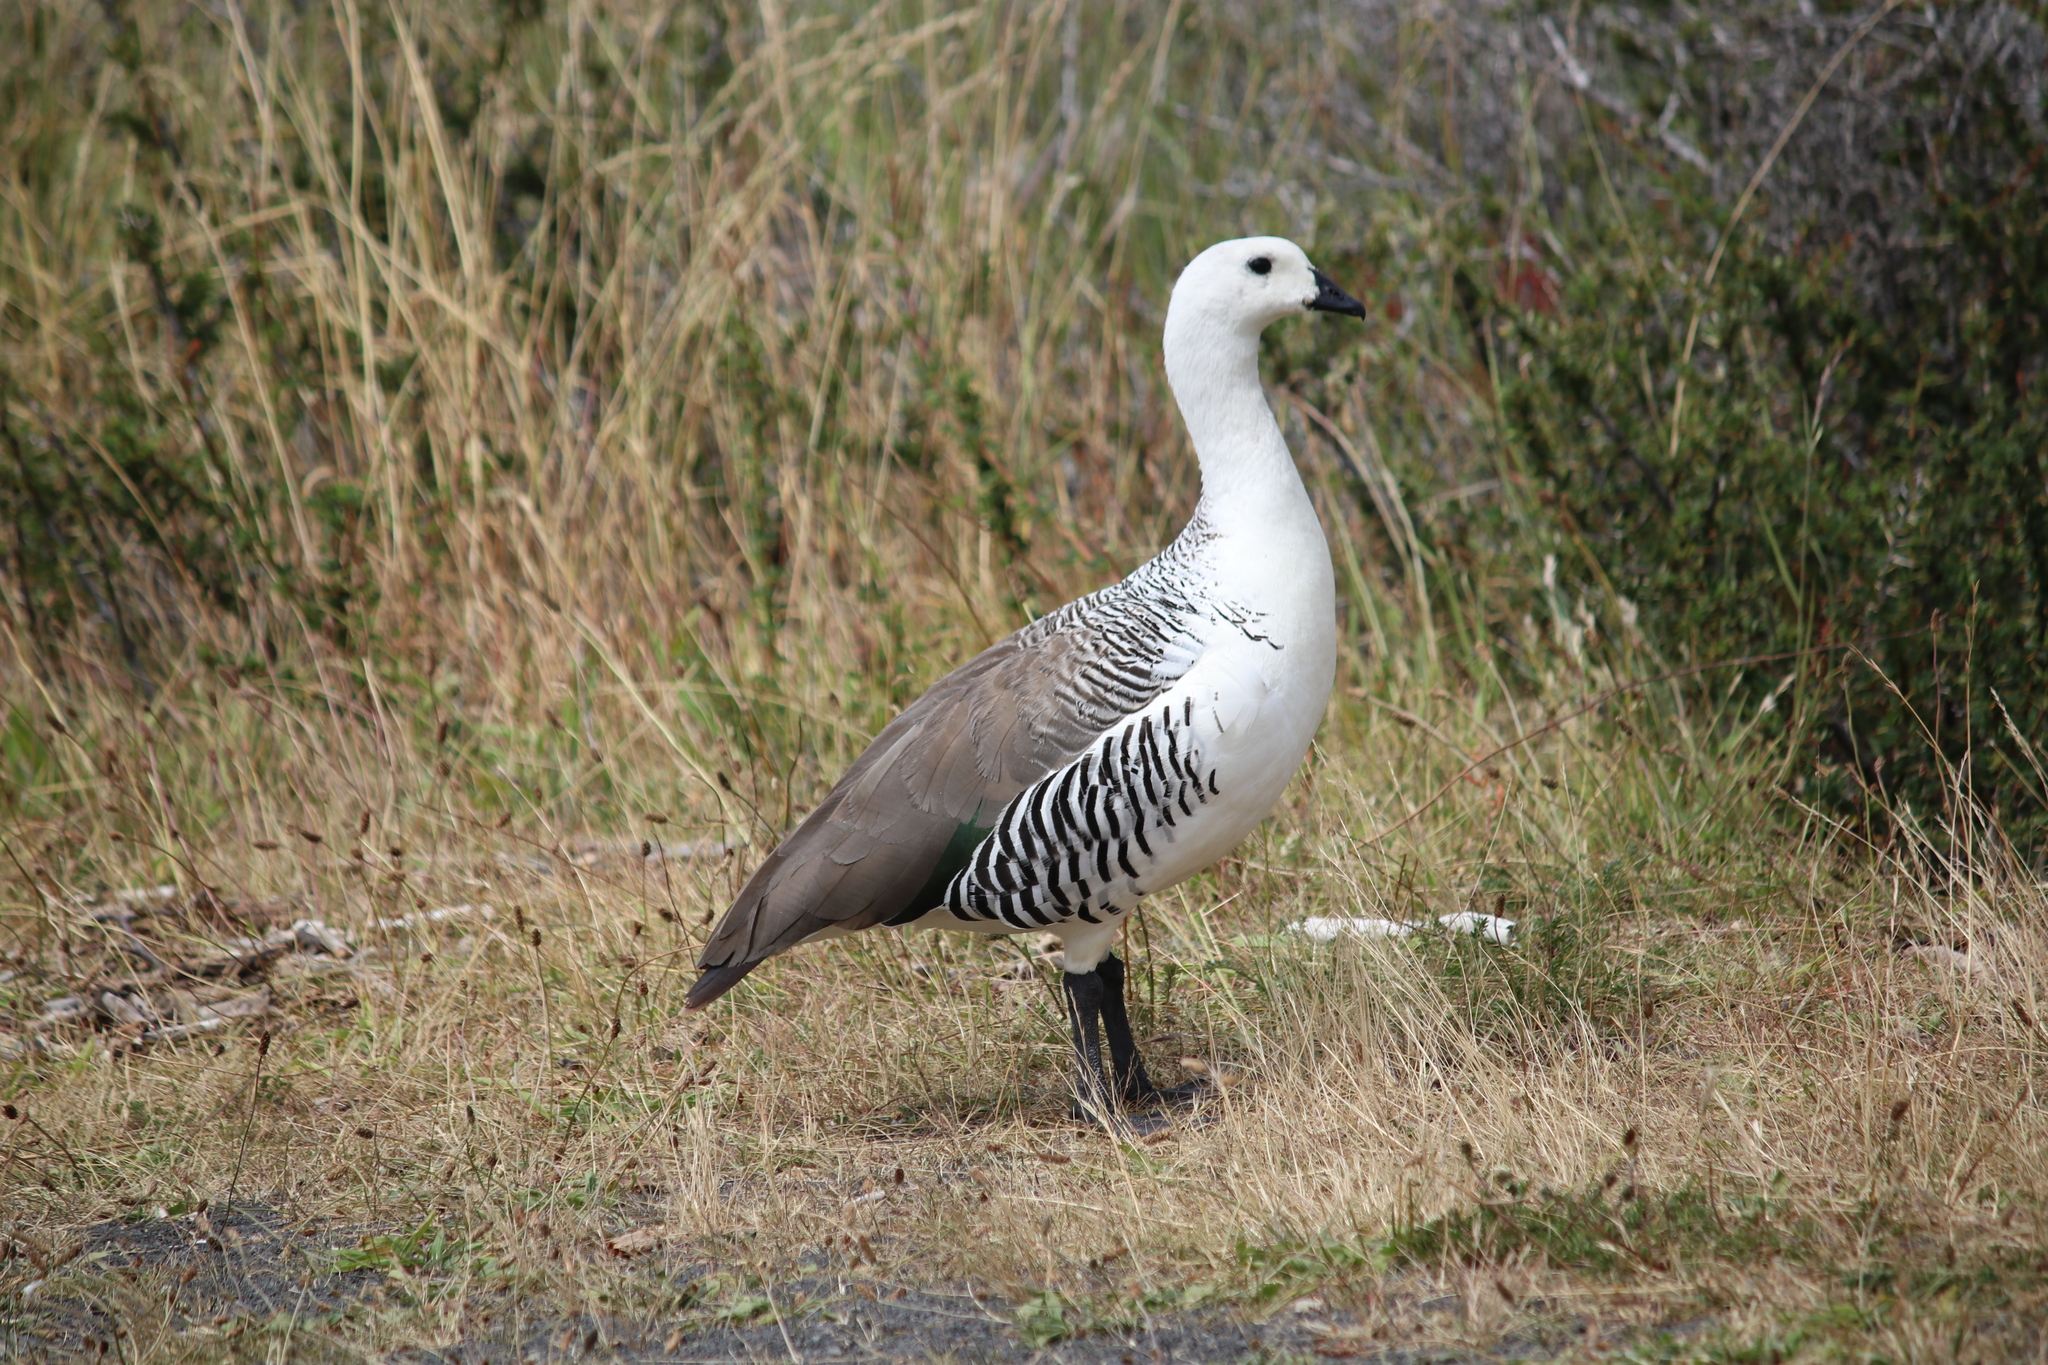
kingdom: Animalia
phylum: Chordata
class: Aves
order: Anseriformes
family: Anatidae
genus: Chloephaga
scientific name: Chloephaga picta
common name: Upland goose
